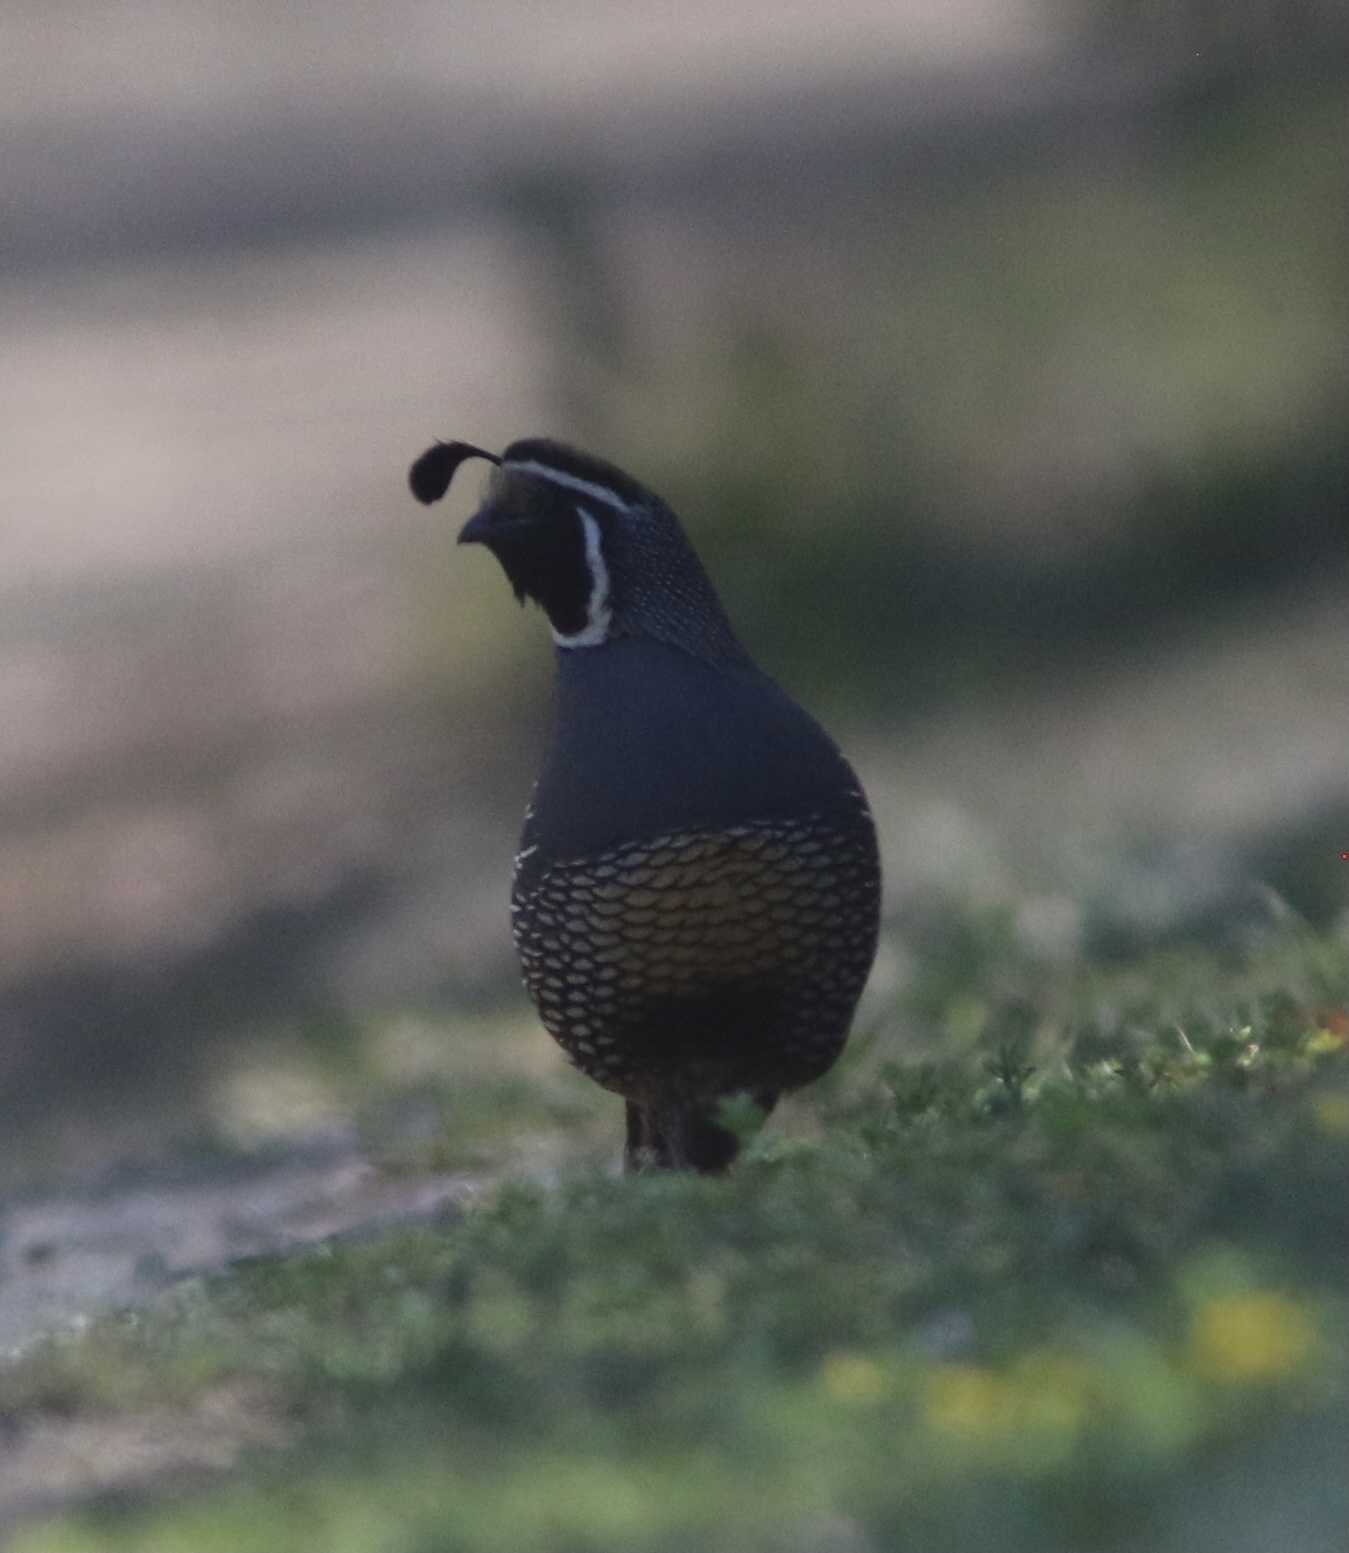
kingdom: Animalia
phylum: Chordata
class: Aves
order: Galliformes
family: Odontophoridae
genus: Callipepla
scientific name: Callipepla californica
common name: California quail
